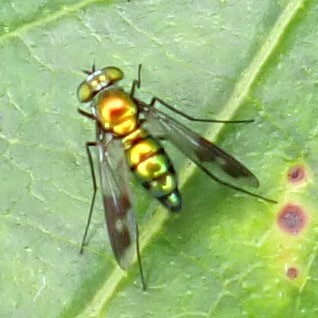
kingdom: Animalia
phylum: Arthropoda
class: Insecta
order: Diptera
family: Dolichopodidae
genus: Condylostylus
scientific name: Condylostylus patibulatus
